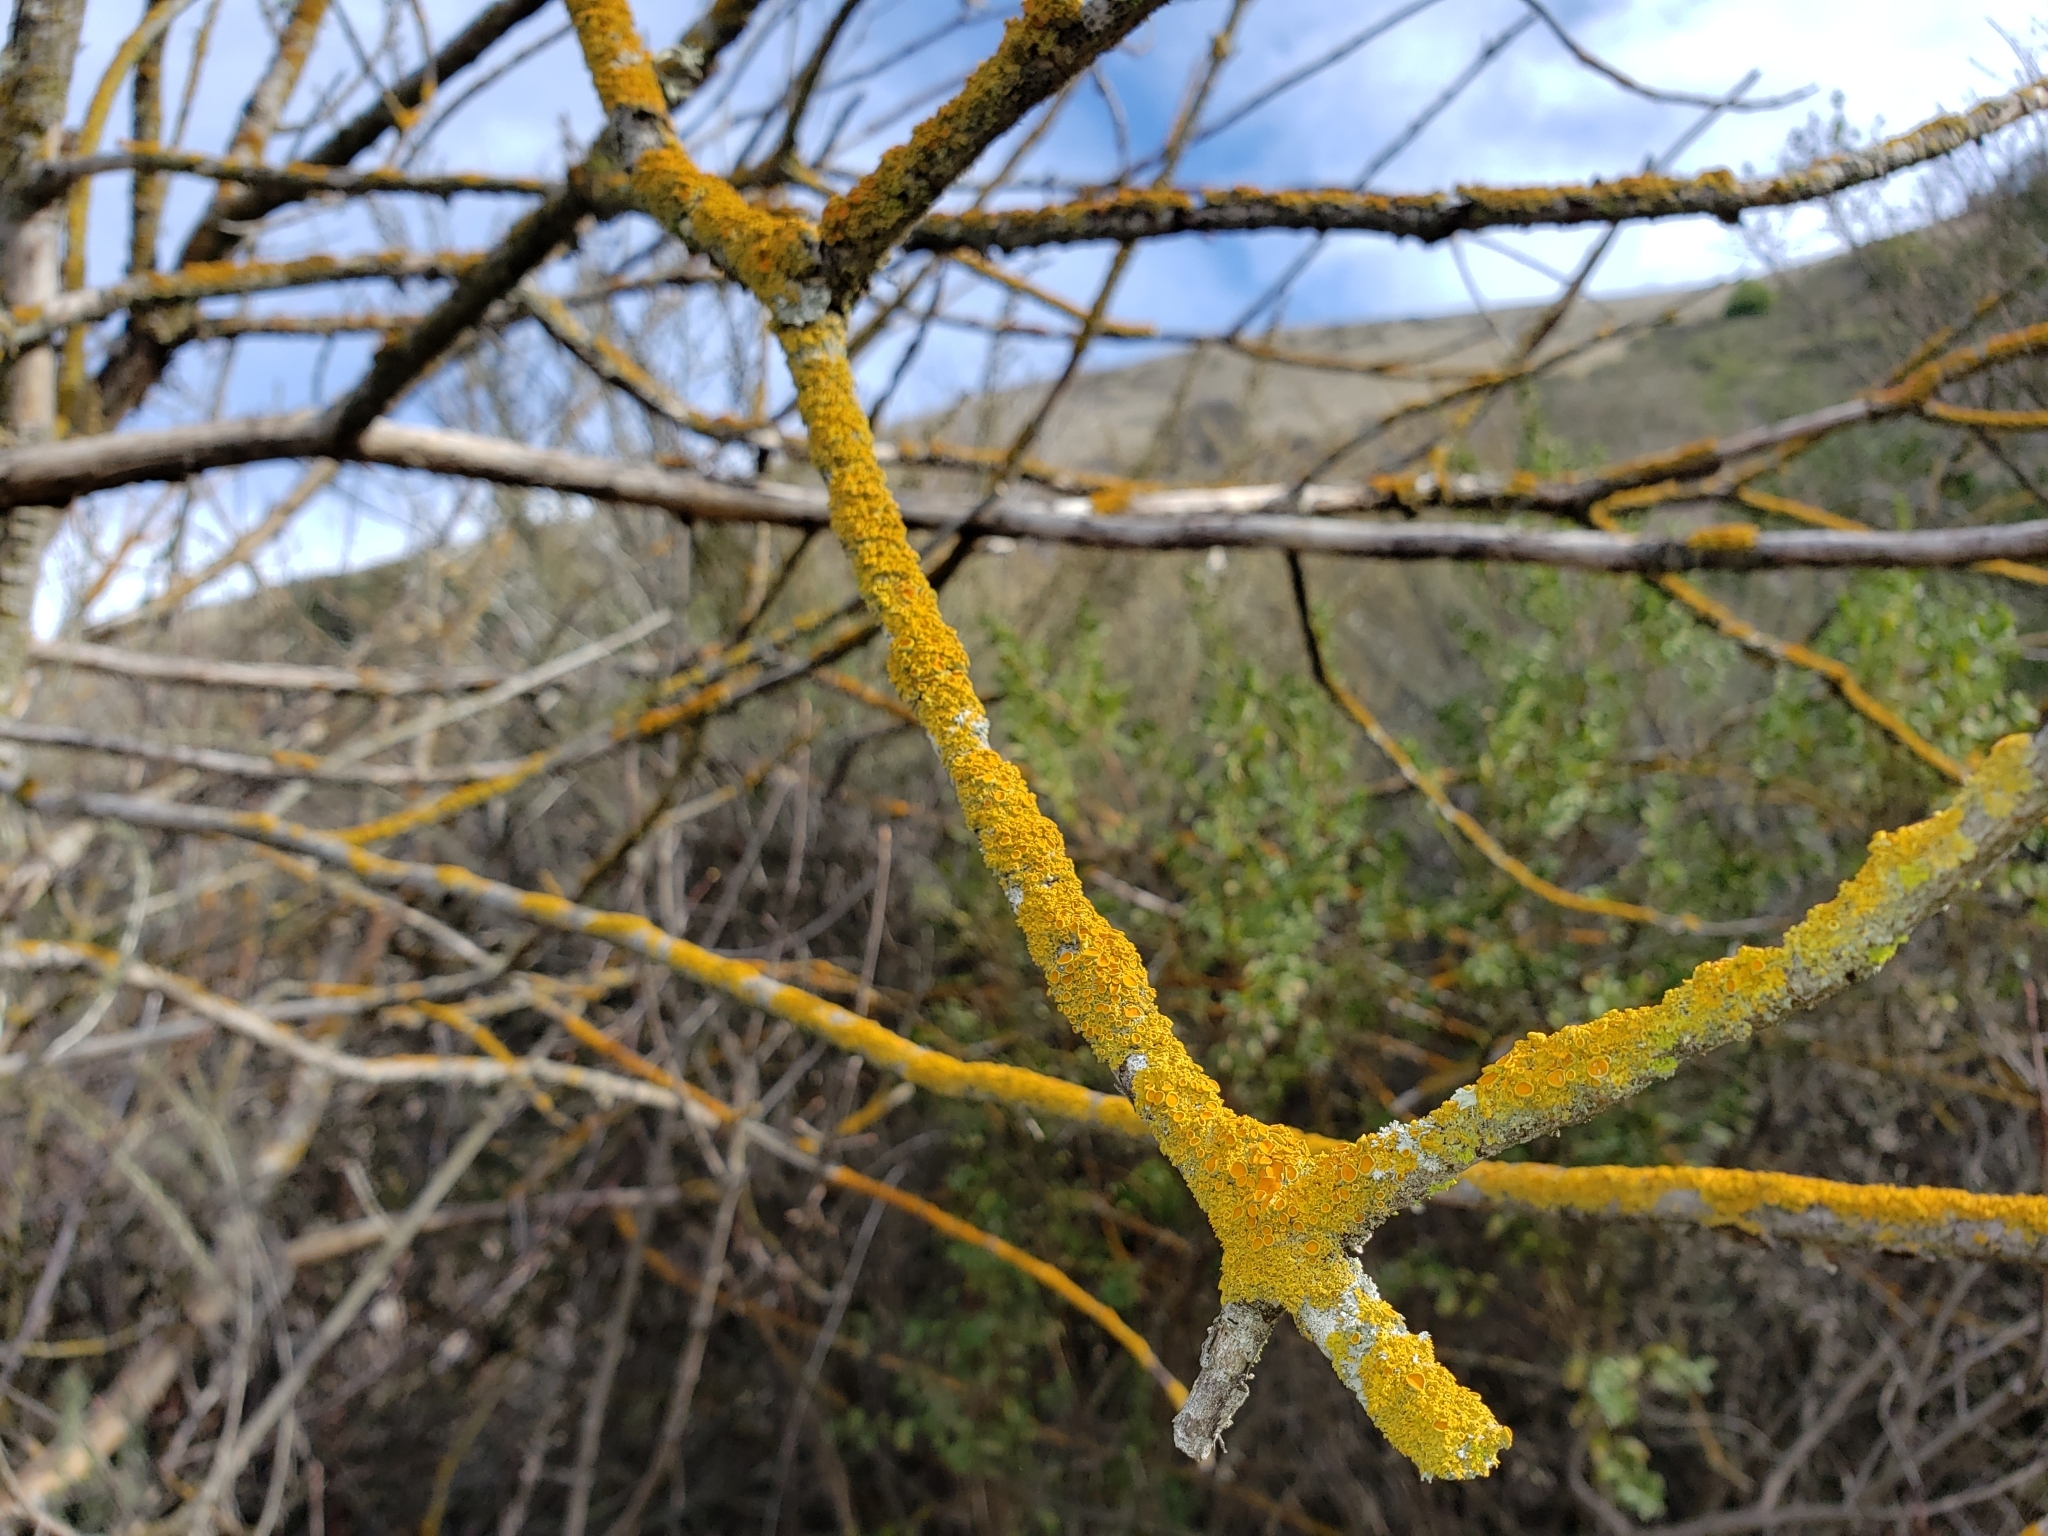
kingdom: Fungi
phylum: Ascomycota
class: Lecanoromycetes
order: Teloschistales
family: Teloschistaceae
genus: Xanthoria
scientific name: Xanthoria parietina
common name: Common orange lichen
